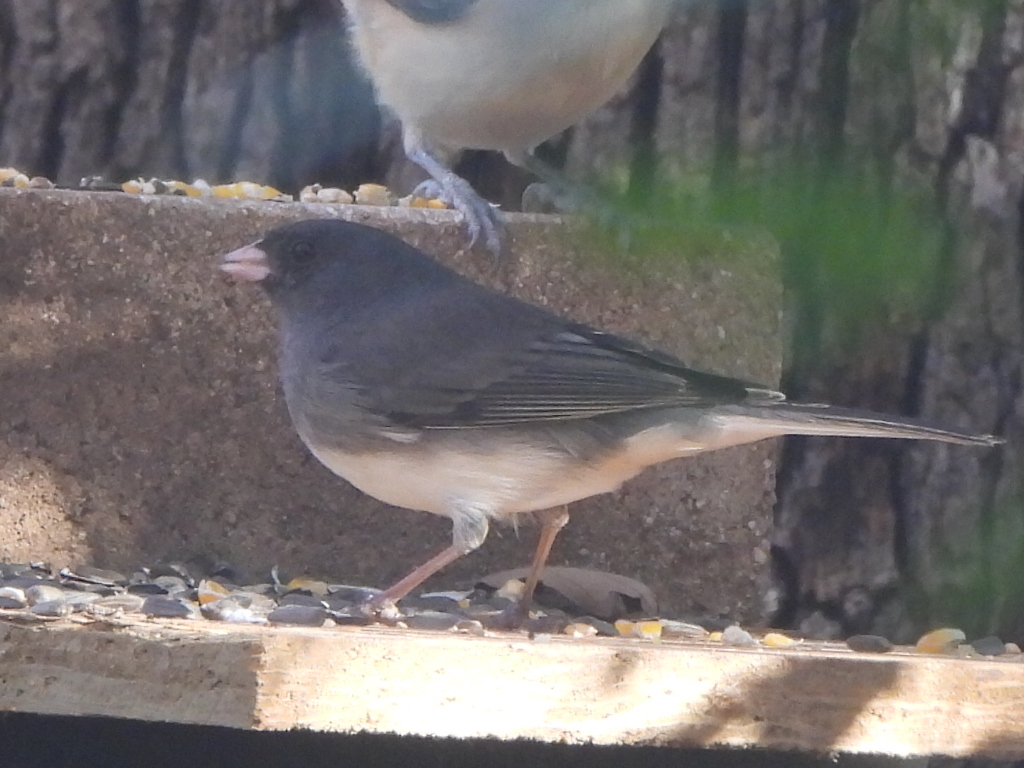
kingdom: Animalia
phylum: Chordata
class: Aves
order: Passeriformes
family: Passerellidae
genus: Junco
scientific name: Junco hyemalis
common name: Dark-eyed junco
